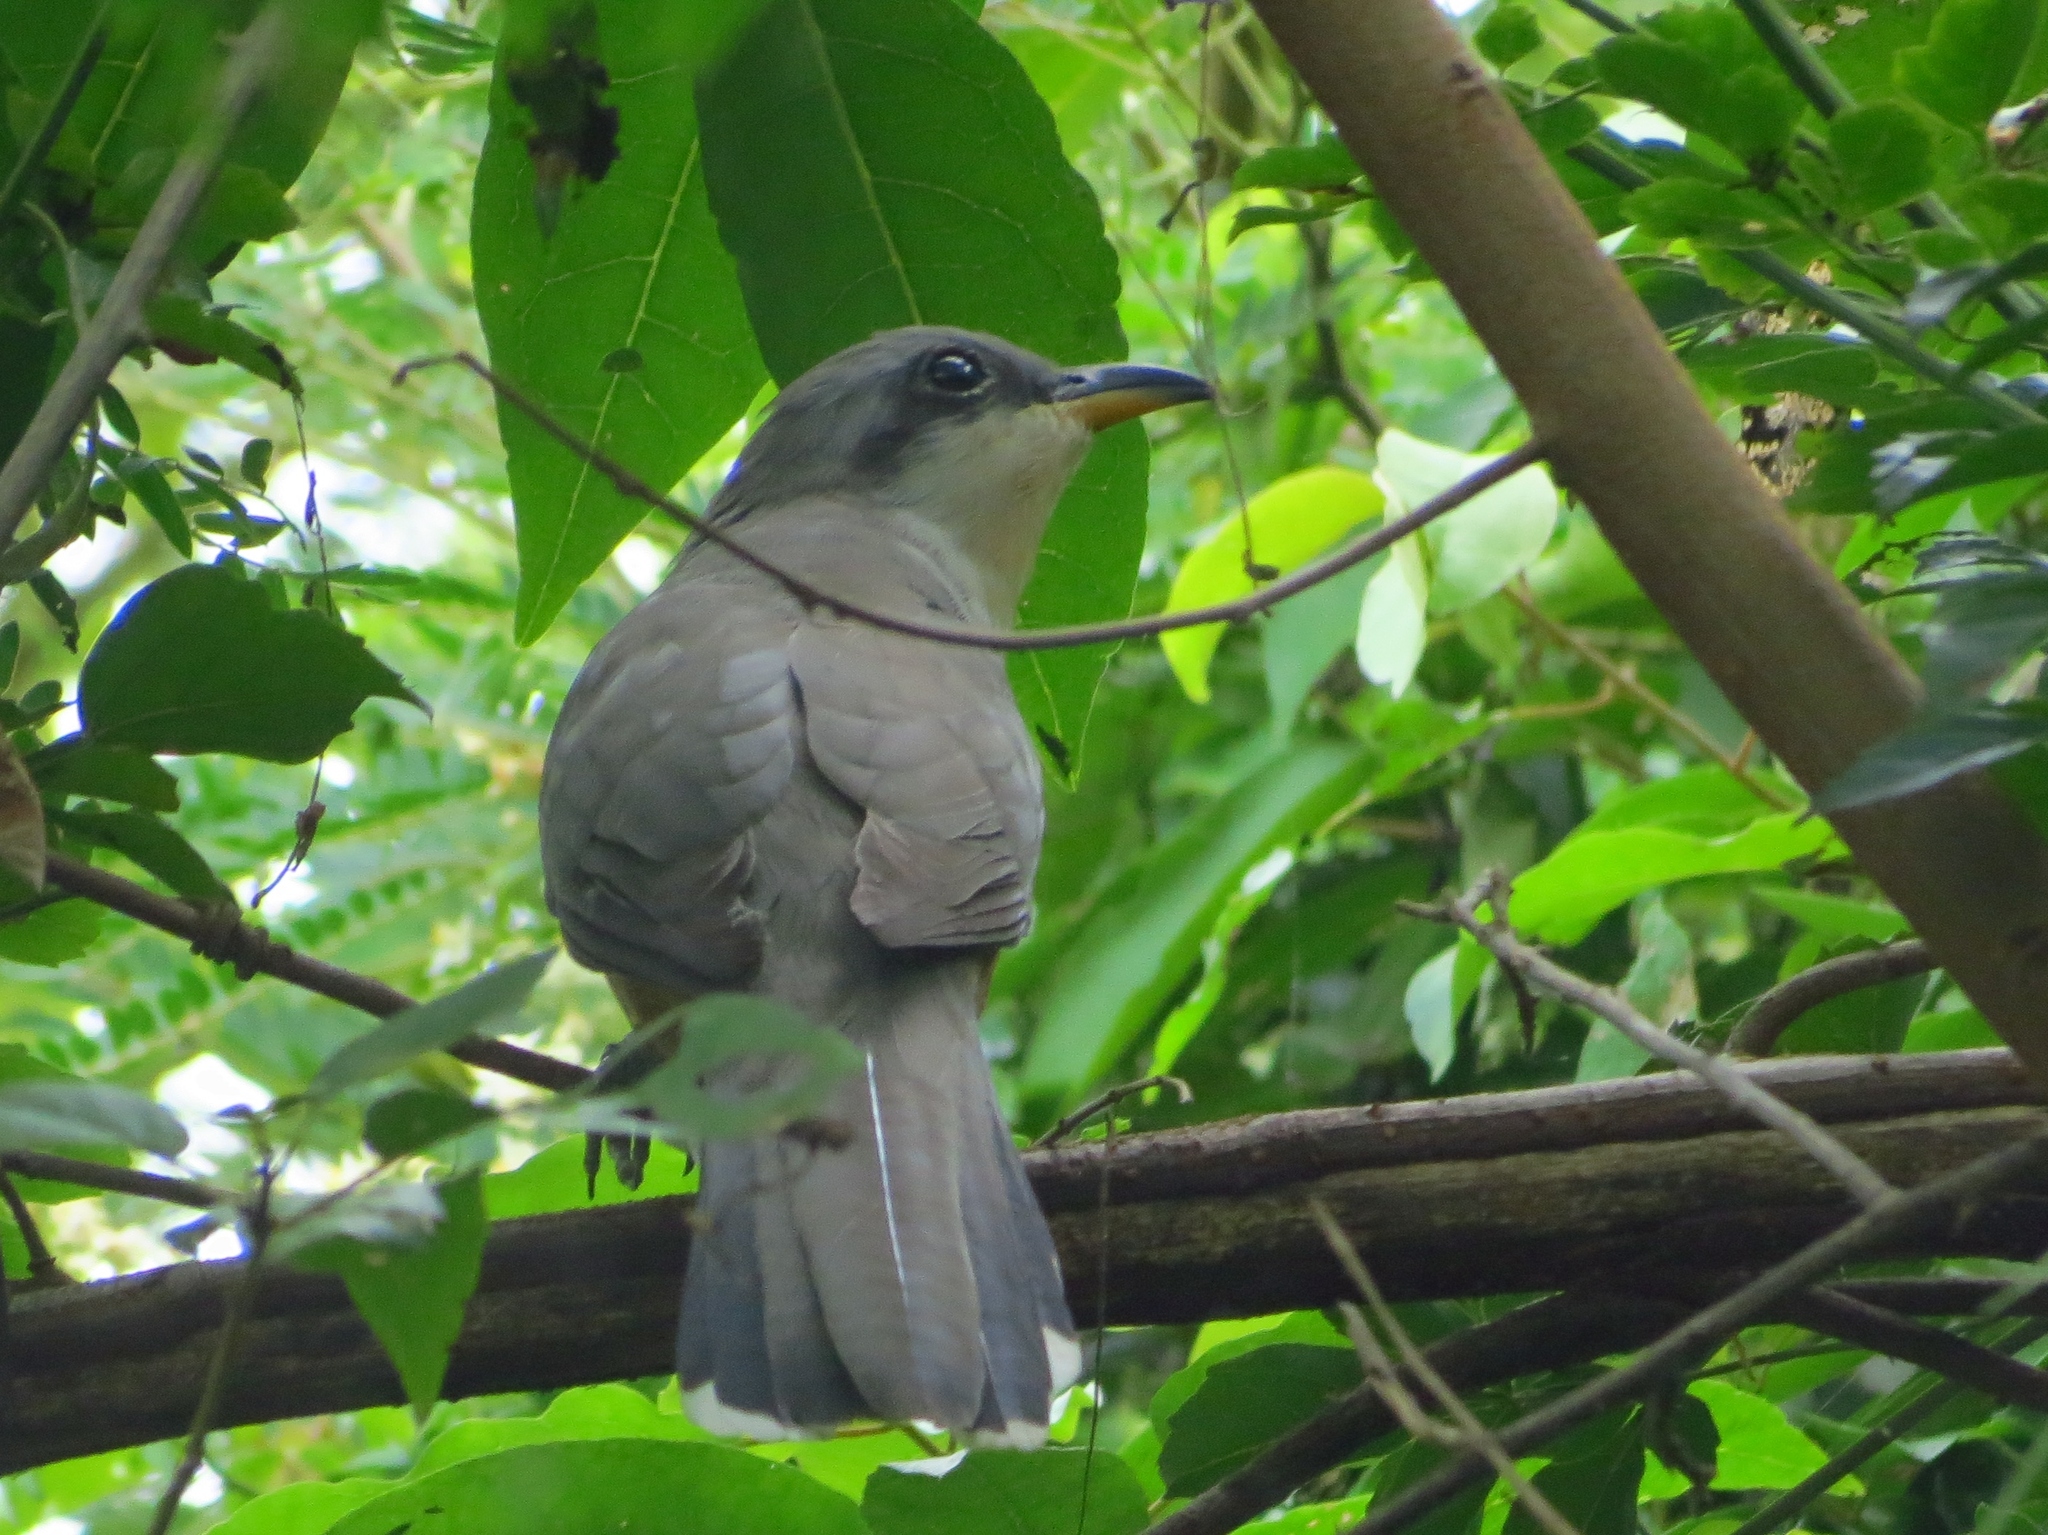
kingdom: Animalia
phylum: Chordata
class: Aves
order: Cuculiformes
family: Cuculidae
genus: Coccyzus
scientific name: Coccyzus minor
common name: Mangrove cuckoo
